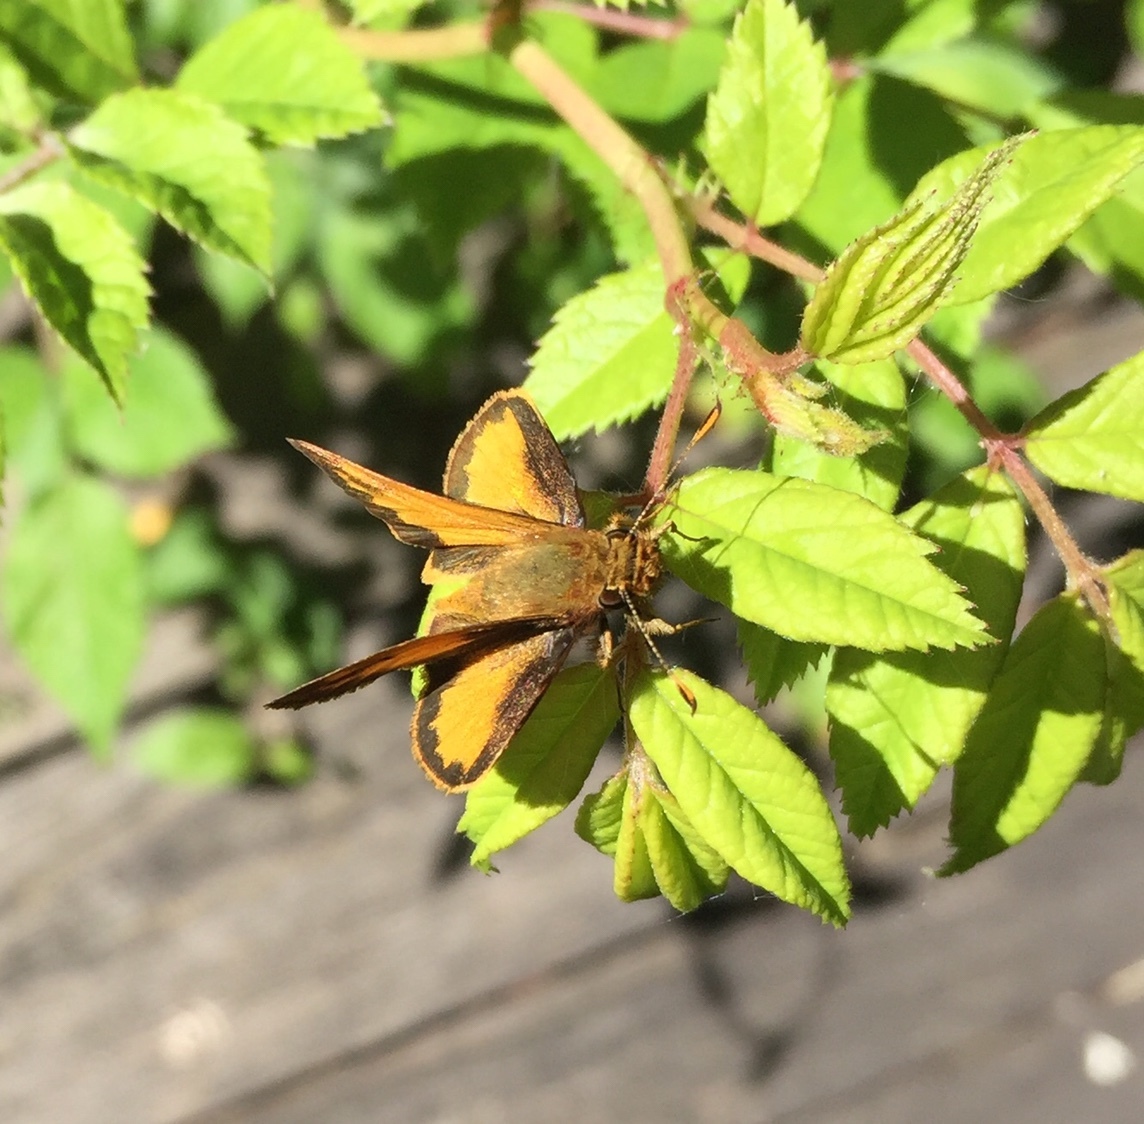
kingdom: Animalia
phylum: Arthropoda
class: Insecta
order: Lepidoptera
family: Hesperiidae
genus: Lon
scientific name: Lon zabulon
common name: Zabulon skipper
